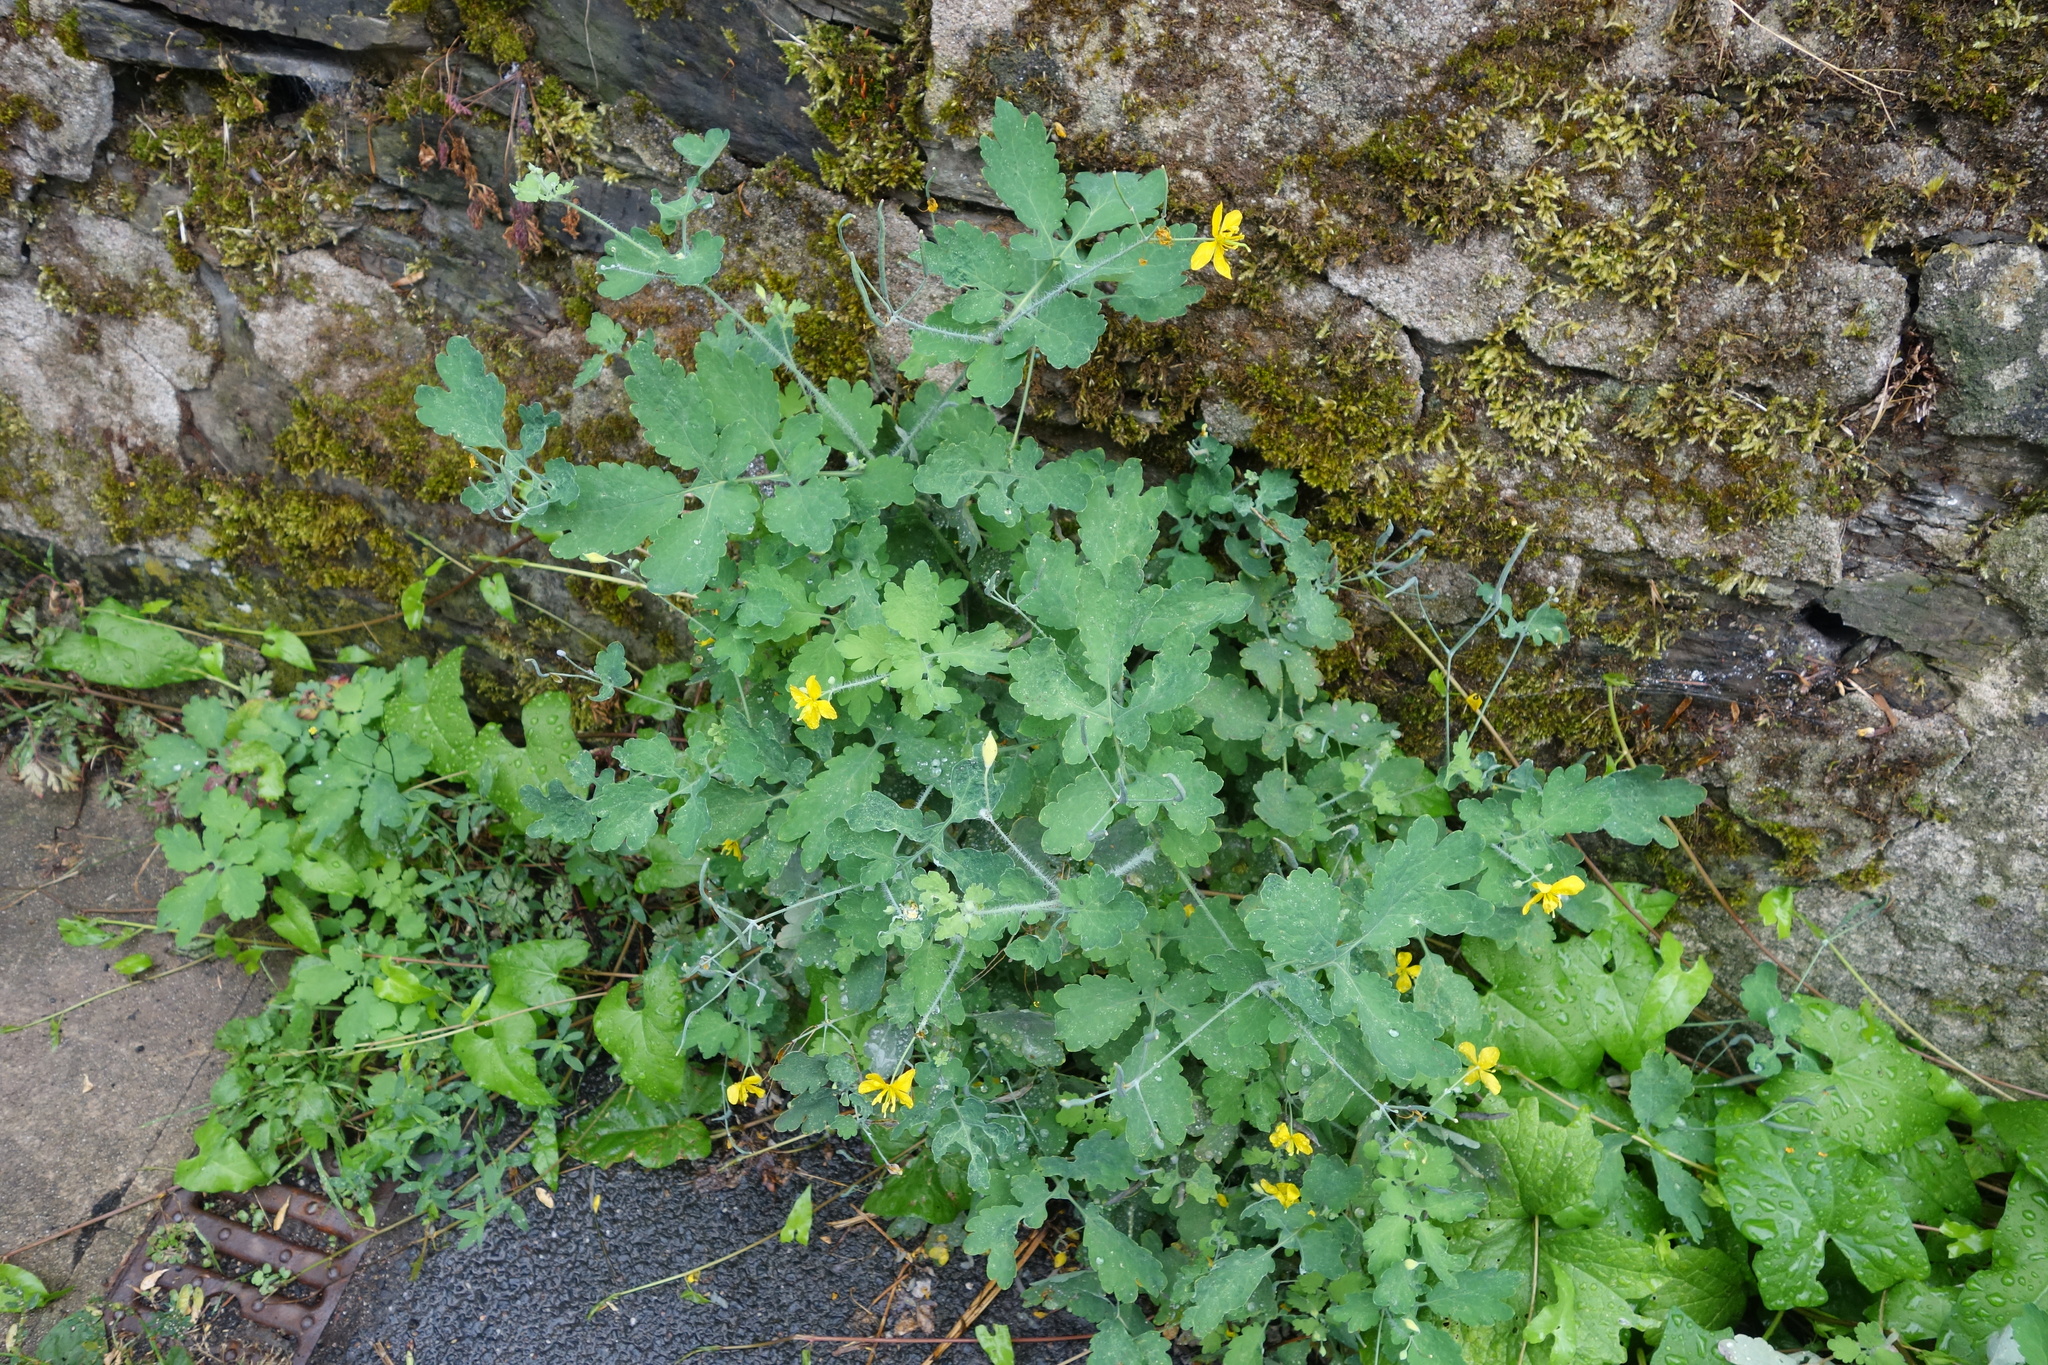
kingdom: Plantae
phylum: Tracheophyta
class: Magnoliopsida
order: Ranunculales
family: Papaveraceae
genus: Chelidonium
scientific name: Chelidonium majus
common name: Greater celandine
